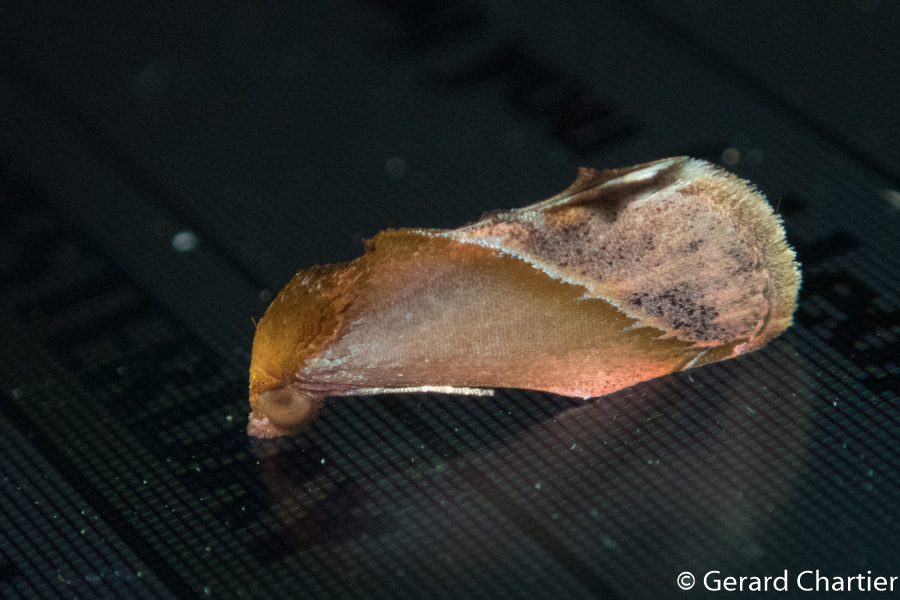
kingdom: Animalia
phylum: Arthropoda
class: Insecta
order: Lepidoptera
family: Erebidae
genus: Arsacia
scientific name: Arsacia rectalis
